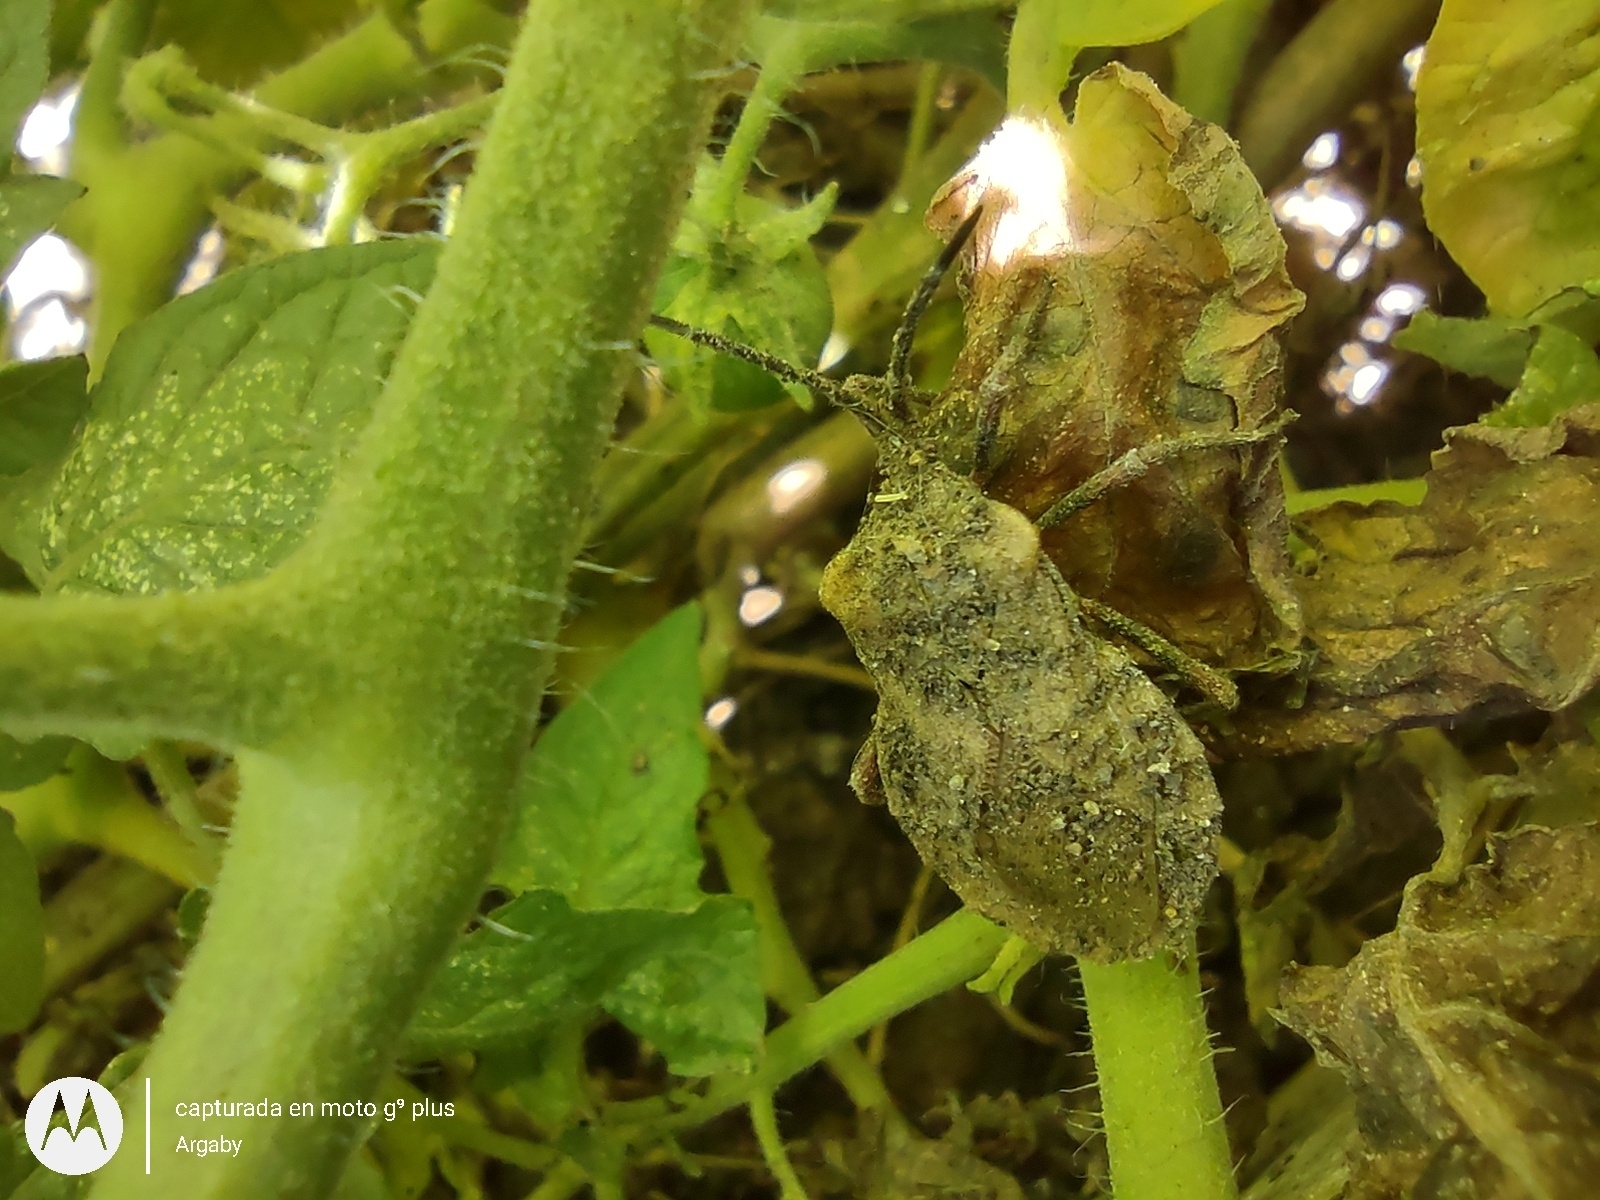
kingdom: Animalia
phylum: Arthropoda
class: Insecta
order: Hemiptera
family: Coreidae
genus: Spartocera
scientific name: Spartocera fusca
